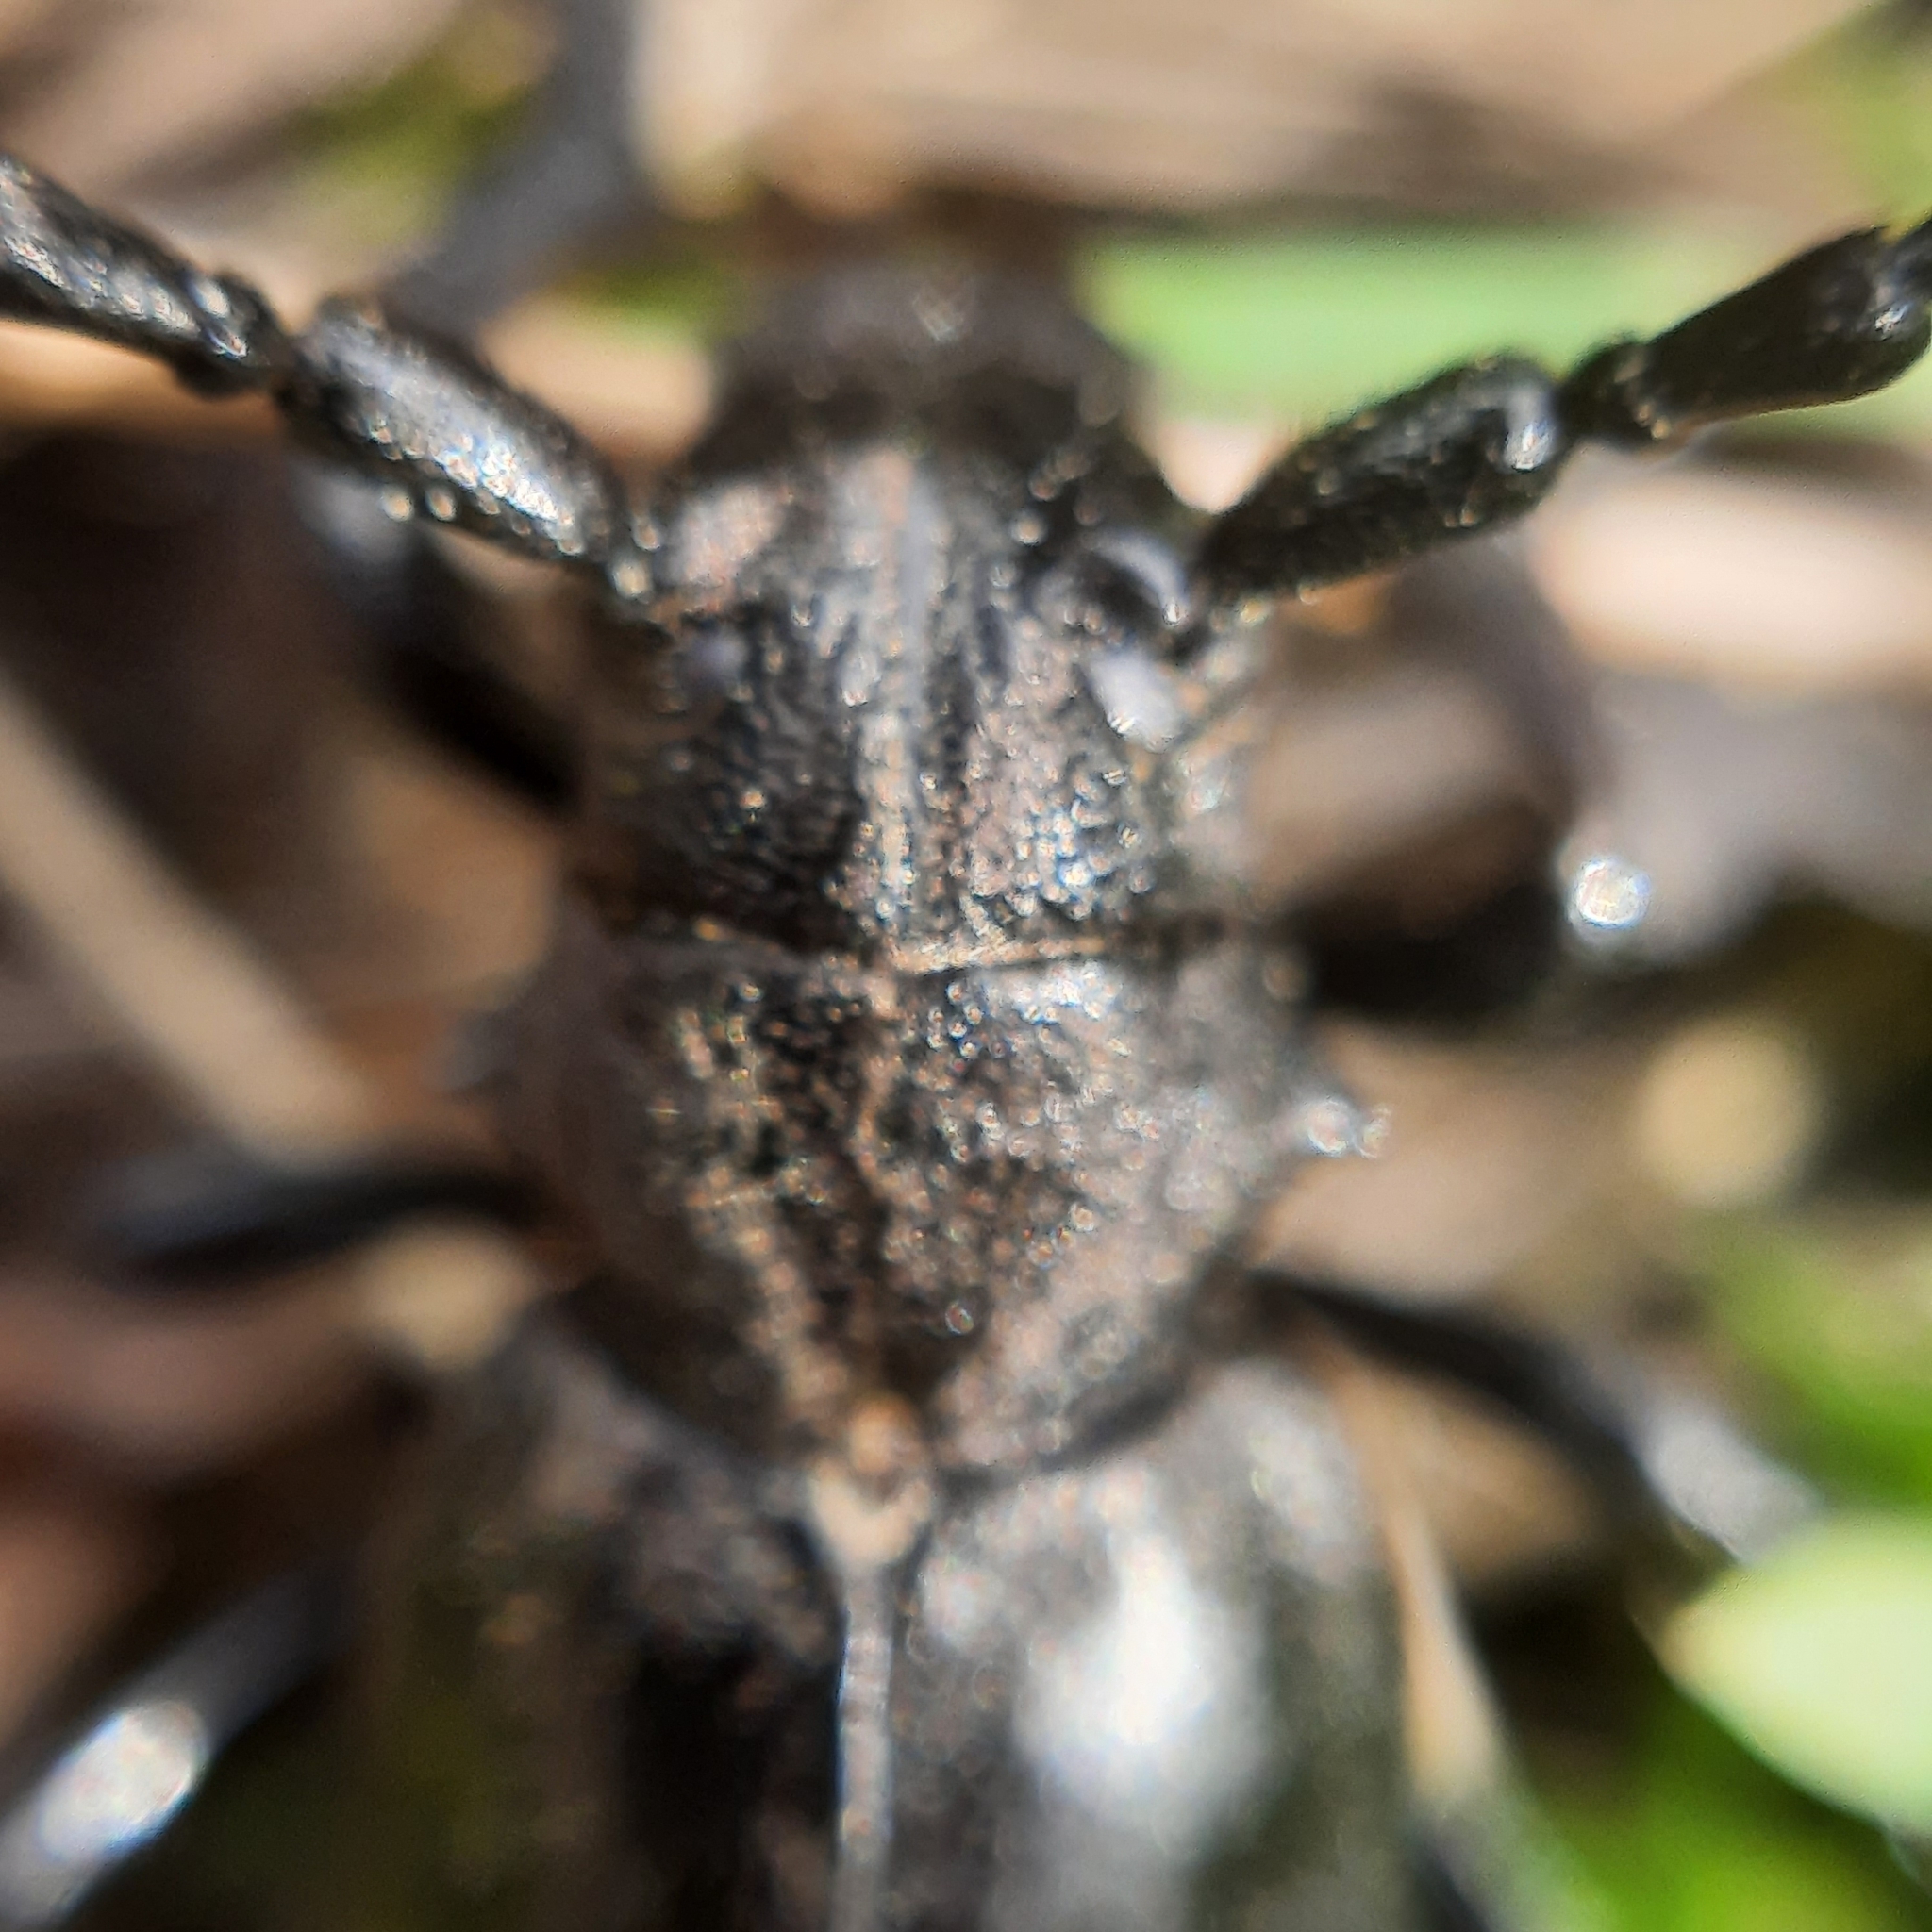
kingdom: Animalia
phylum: Arthropoda
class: Insecta
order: Coleoptera
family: Cerambycidae
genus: Dorcadion
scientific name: Dorcadion aethiops
